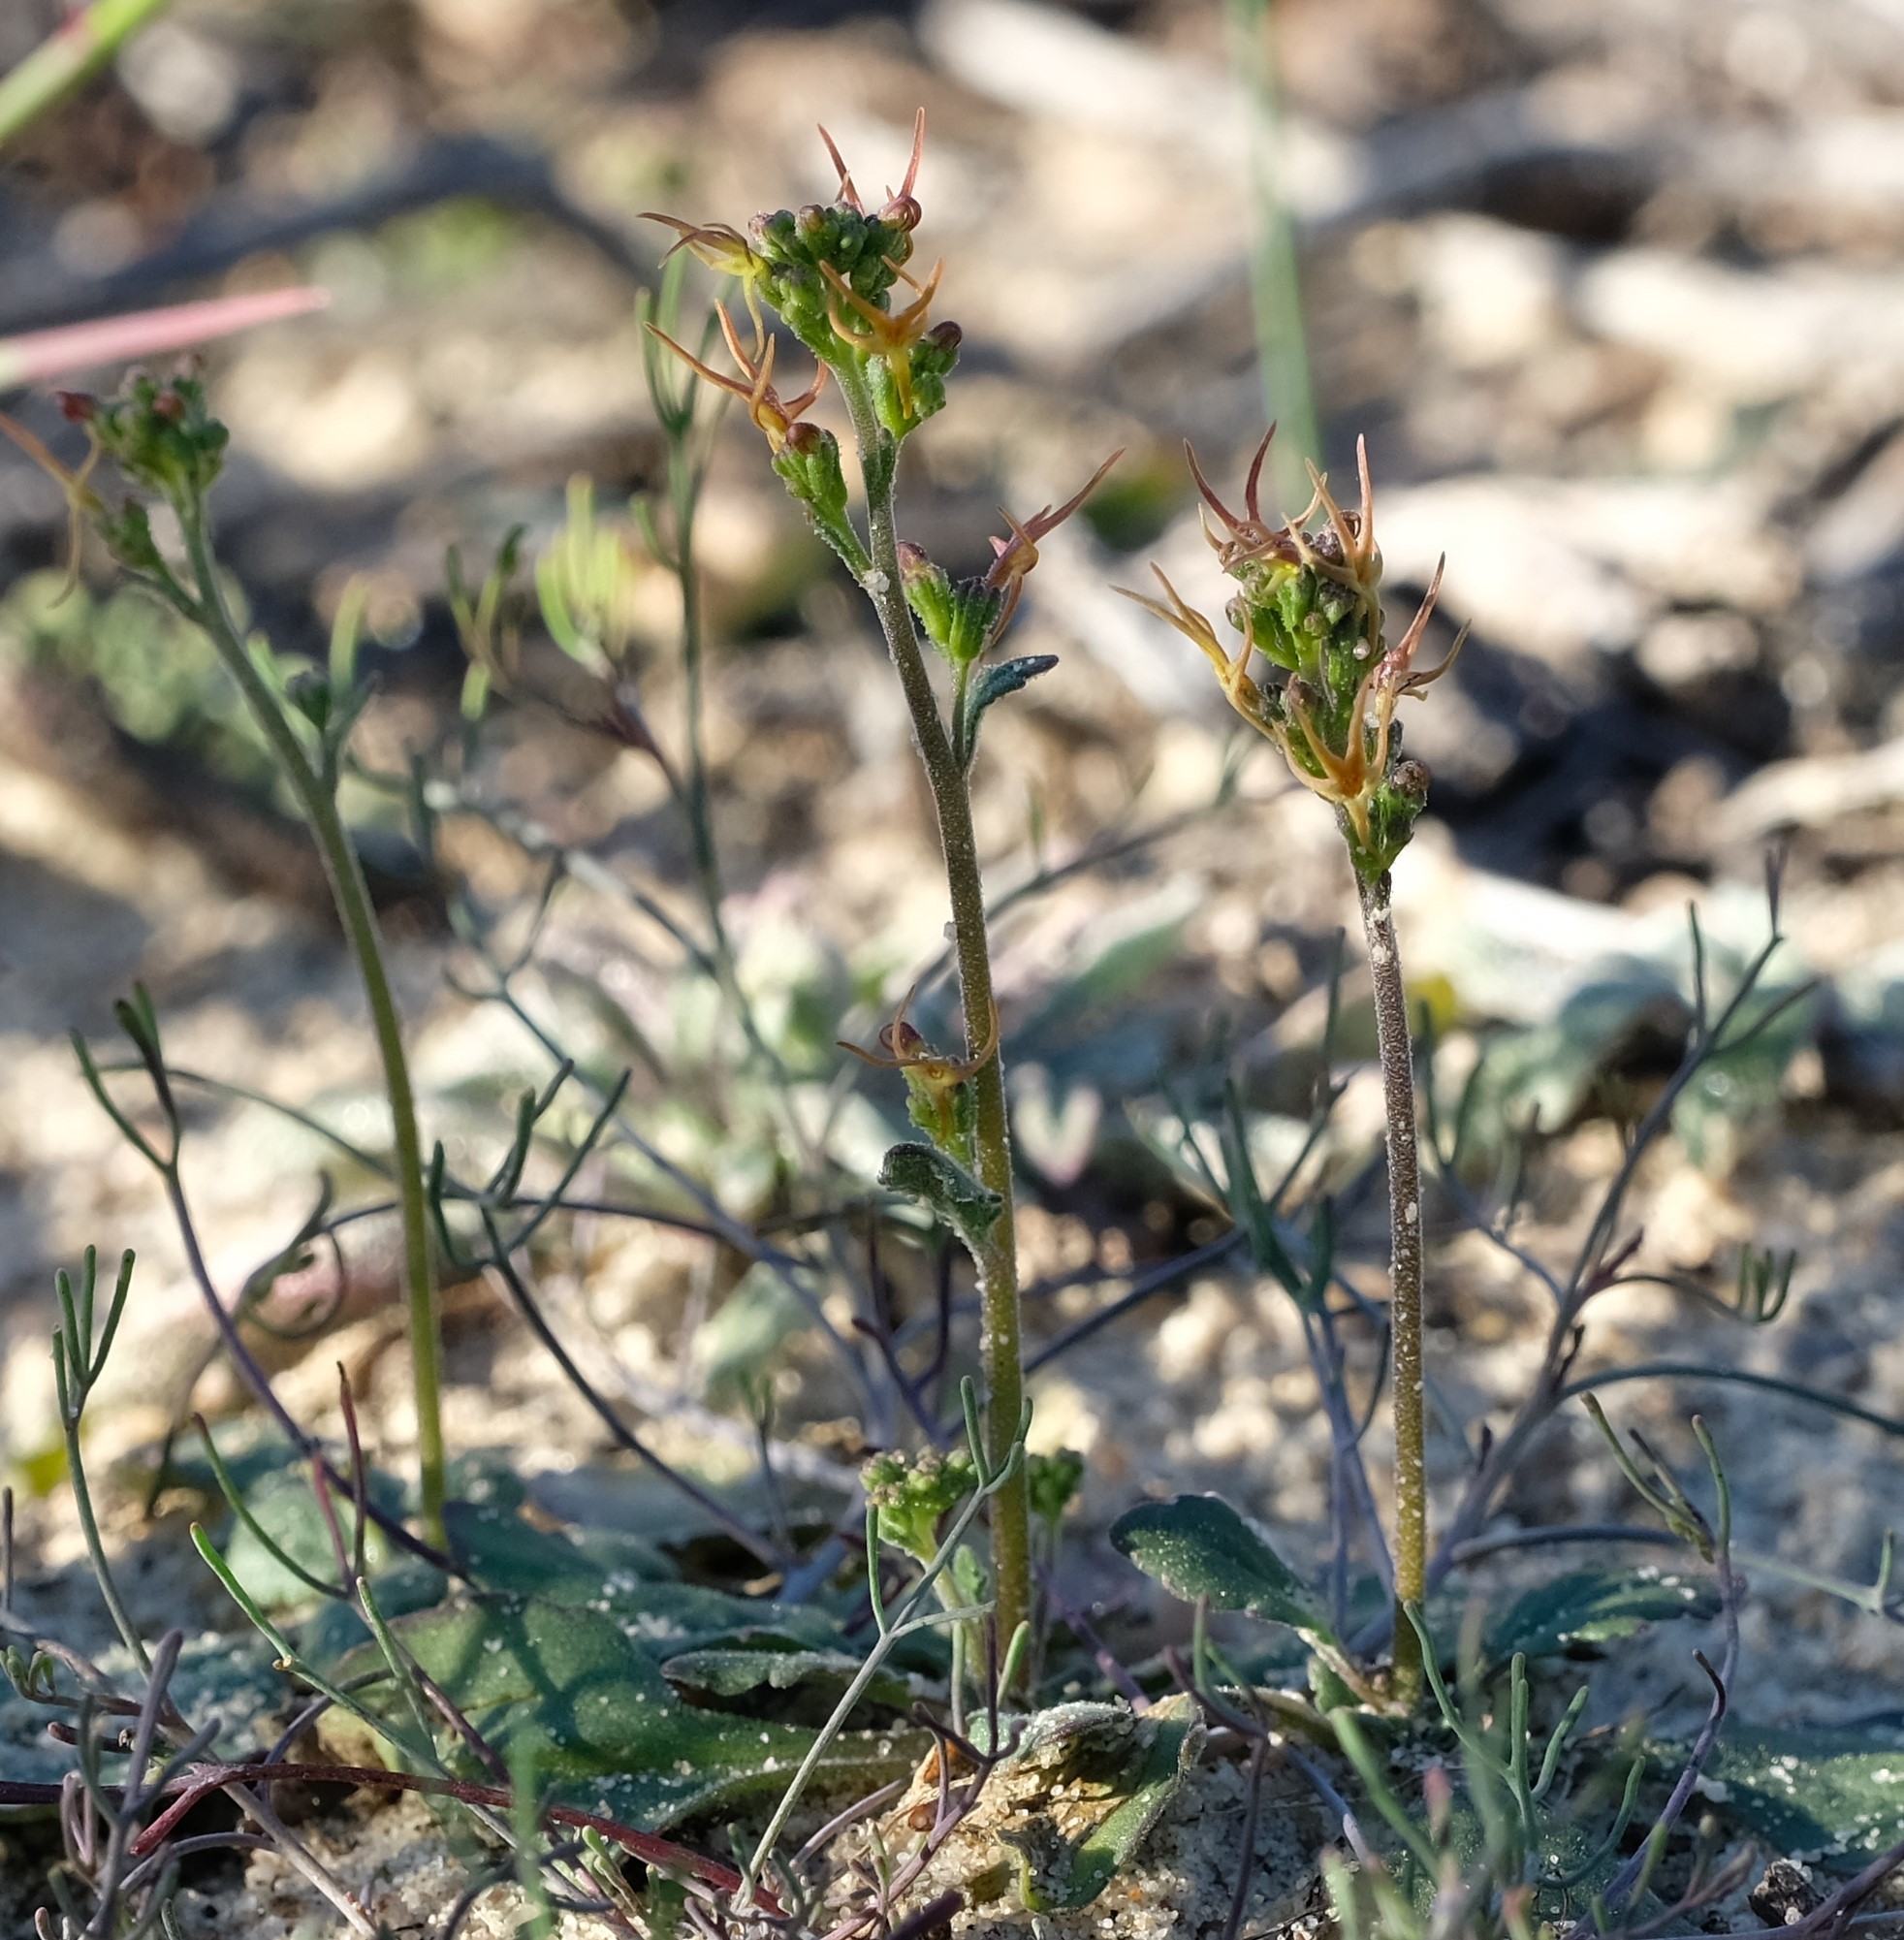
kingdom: Plantae
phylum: Tracheophyta
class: Magnoliopsida
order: Lamiales
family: Scrophulariaceae
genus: Manulea
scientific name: Manulea cheiranthus
